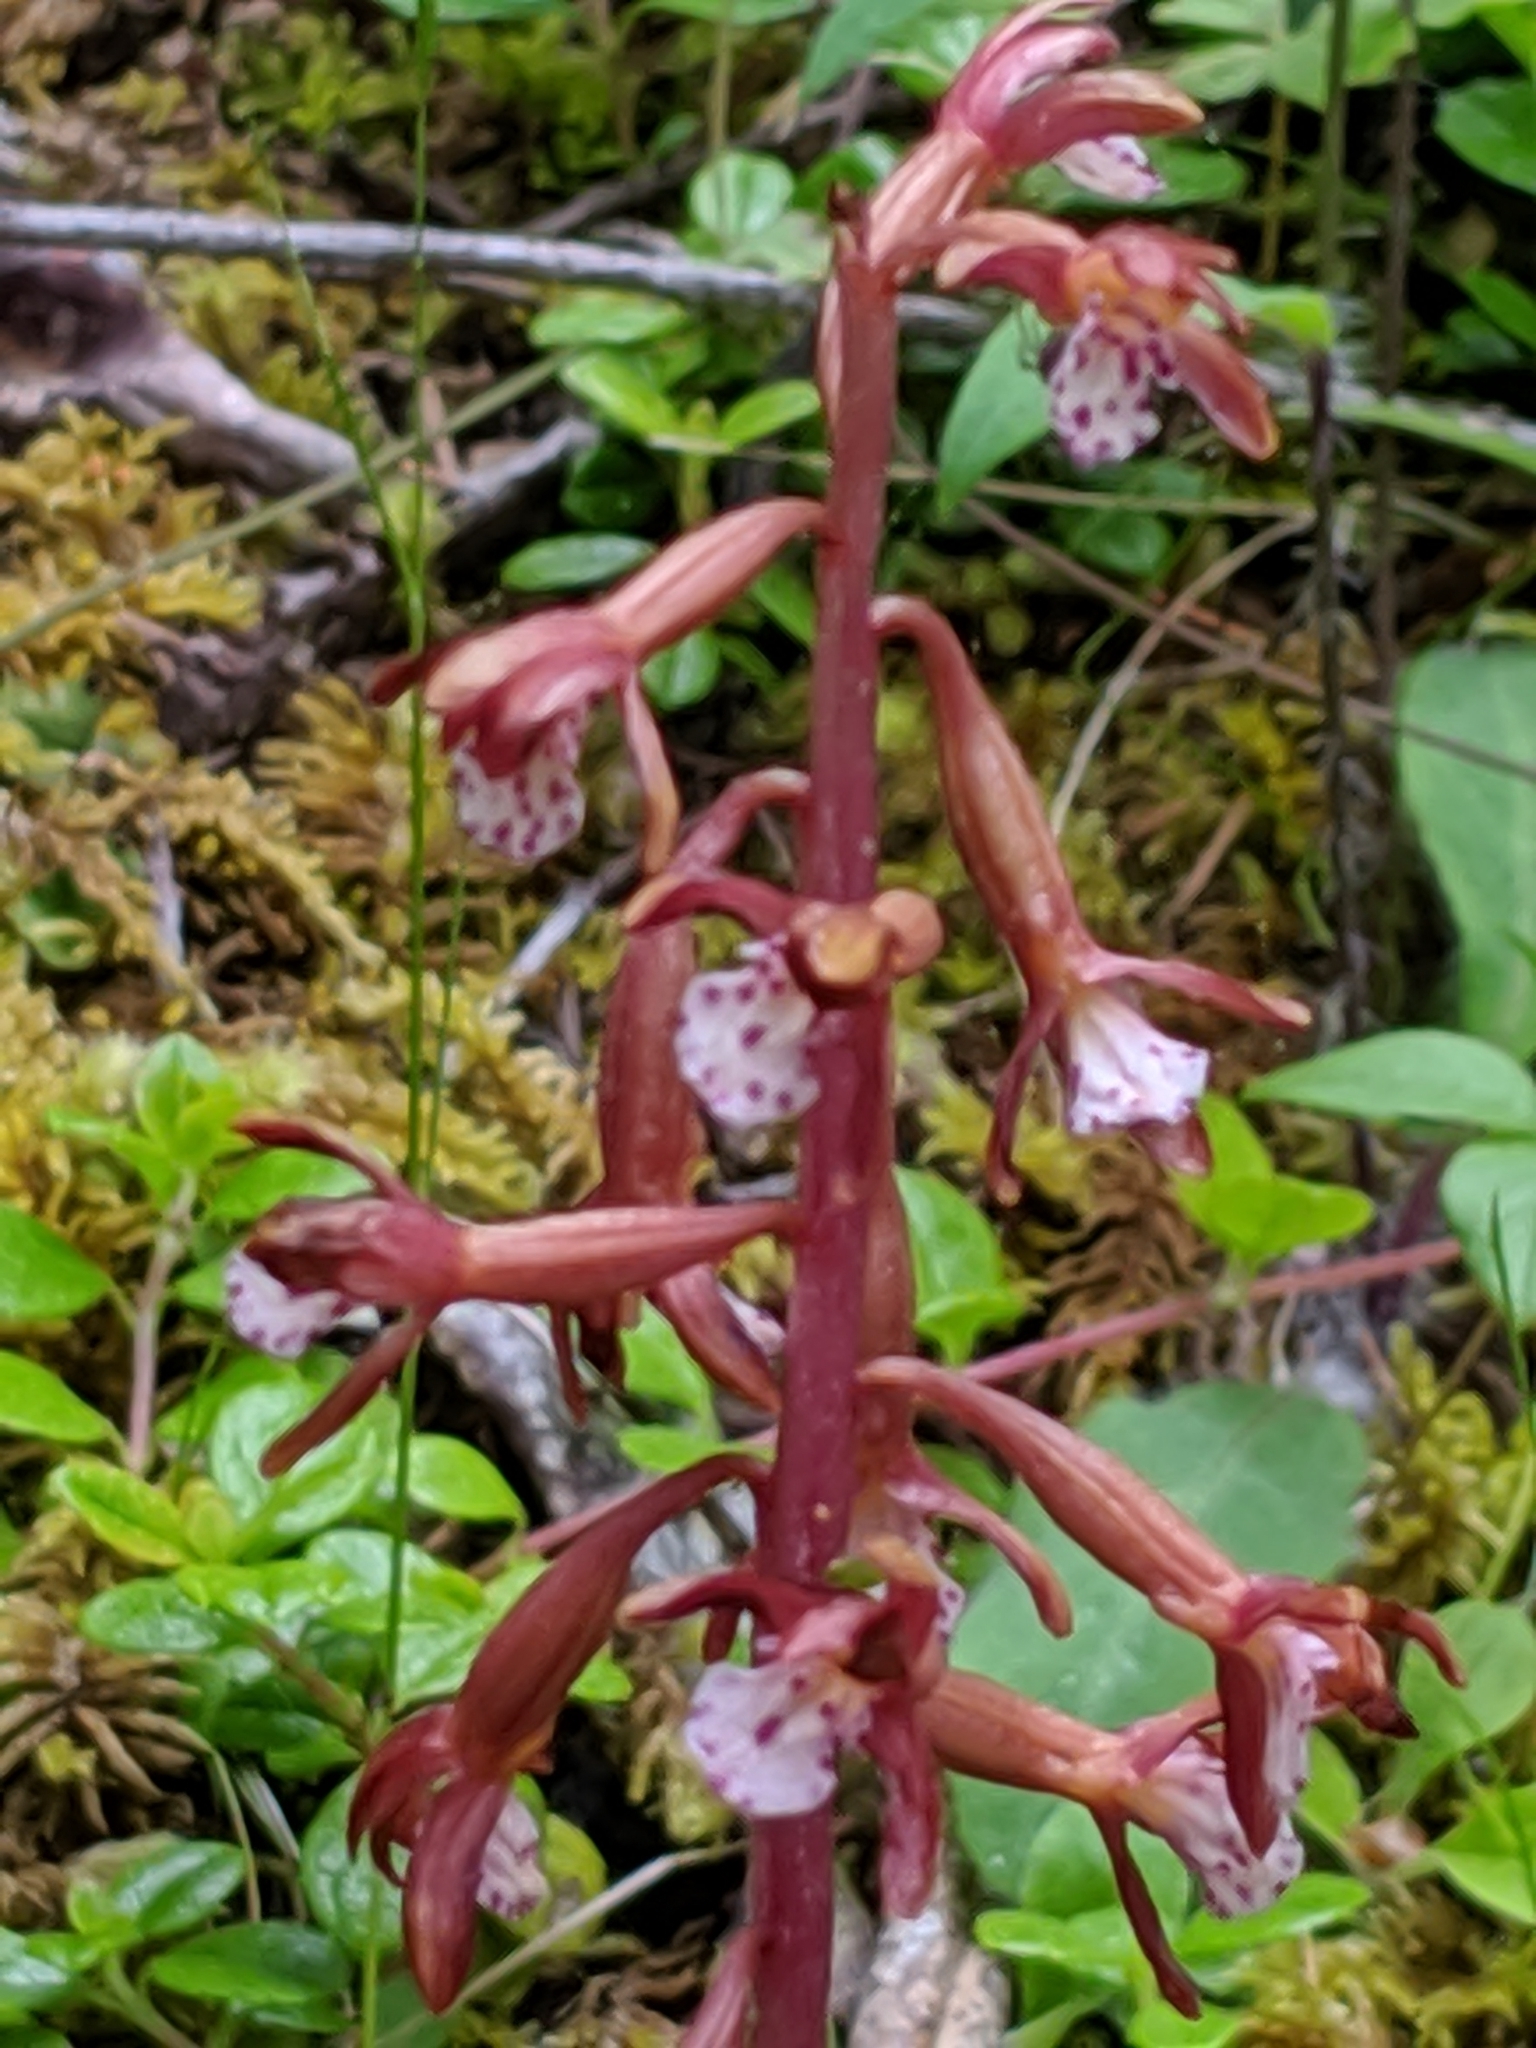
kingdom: Plantae
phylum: Tracheophyta
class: Liliopsida
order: Asparagales
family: Orchidaceae
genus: Corallorhiza
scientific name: Corallorhiza maculata
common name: Spotted coralroot
